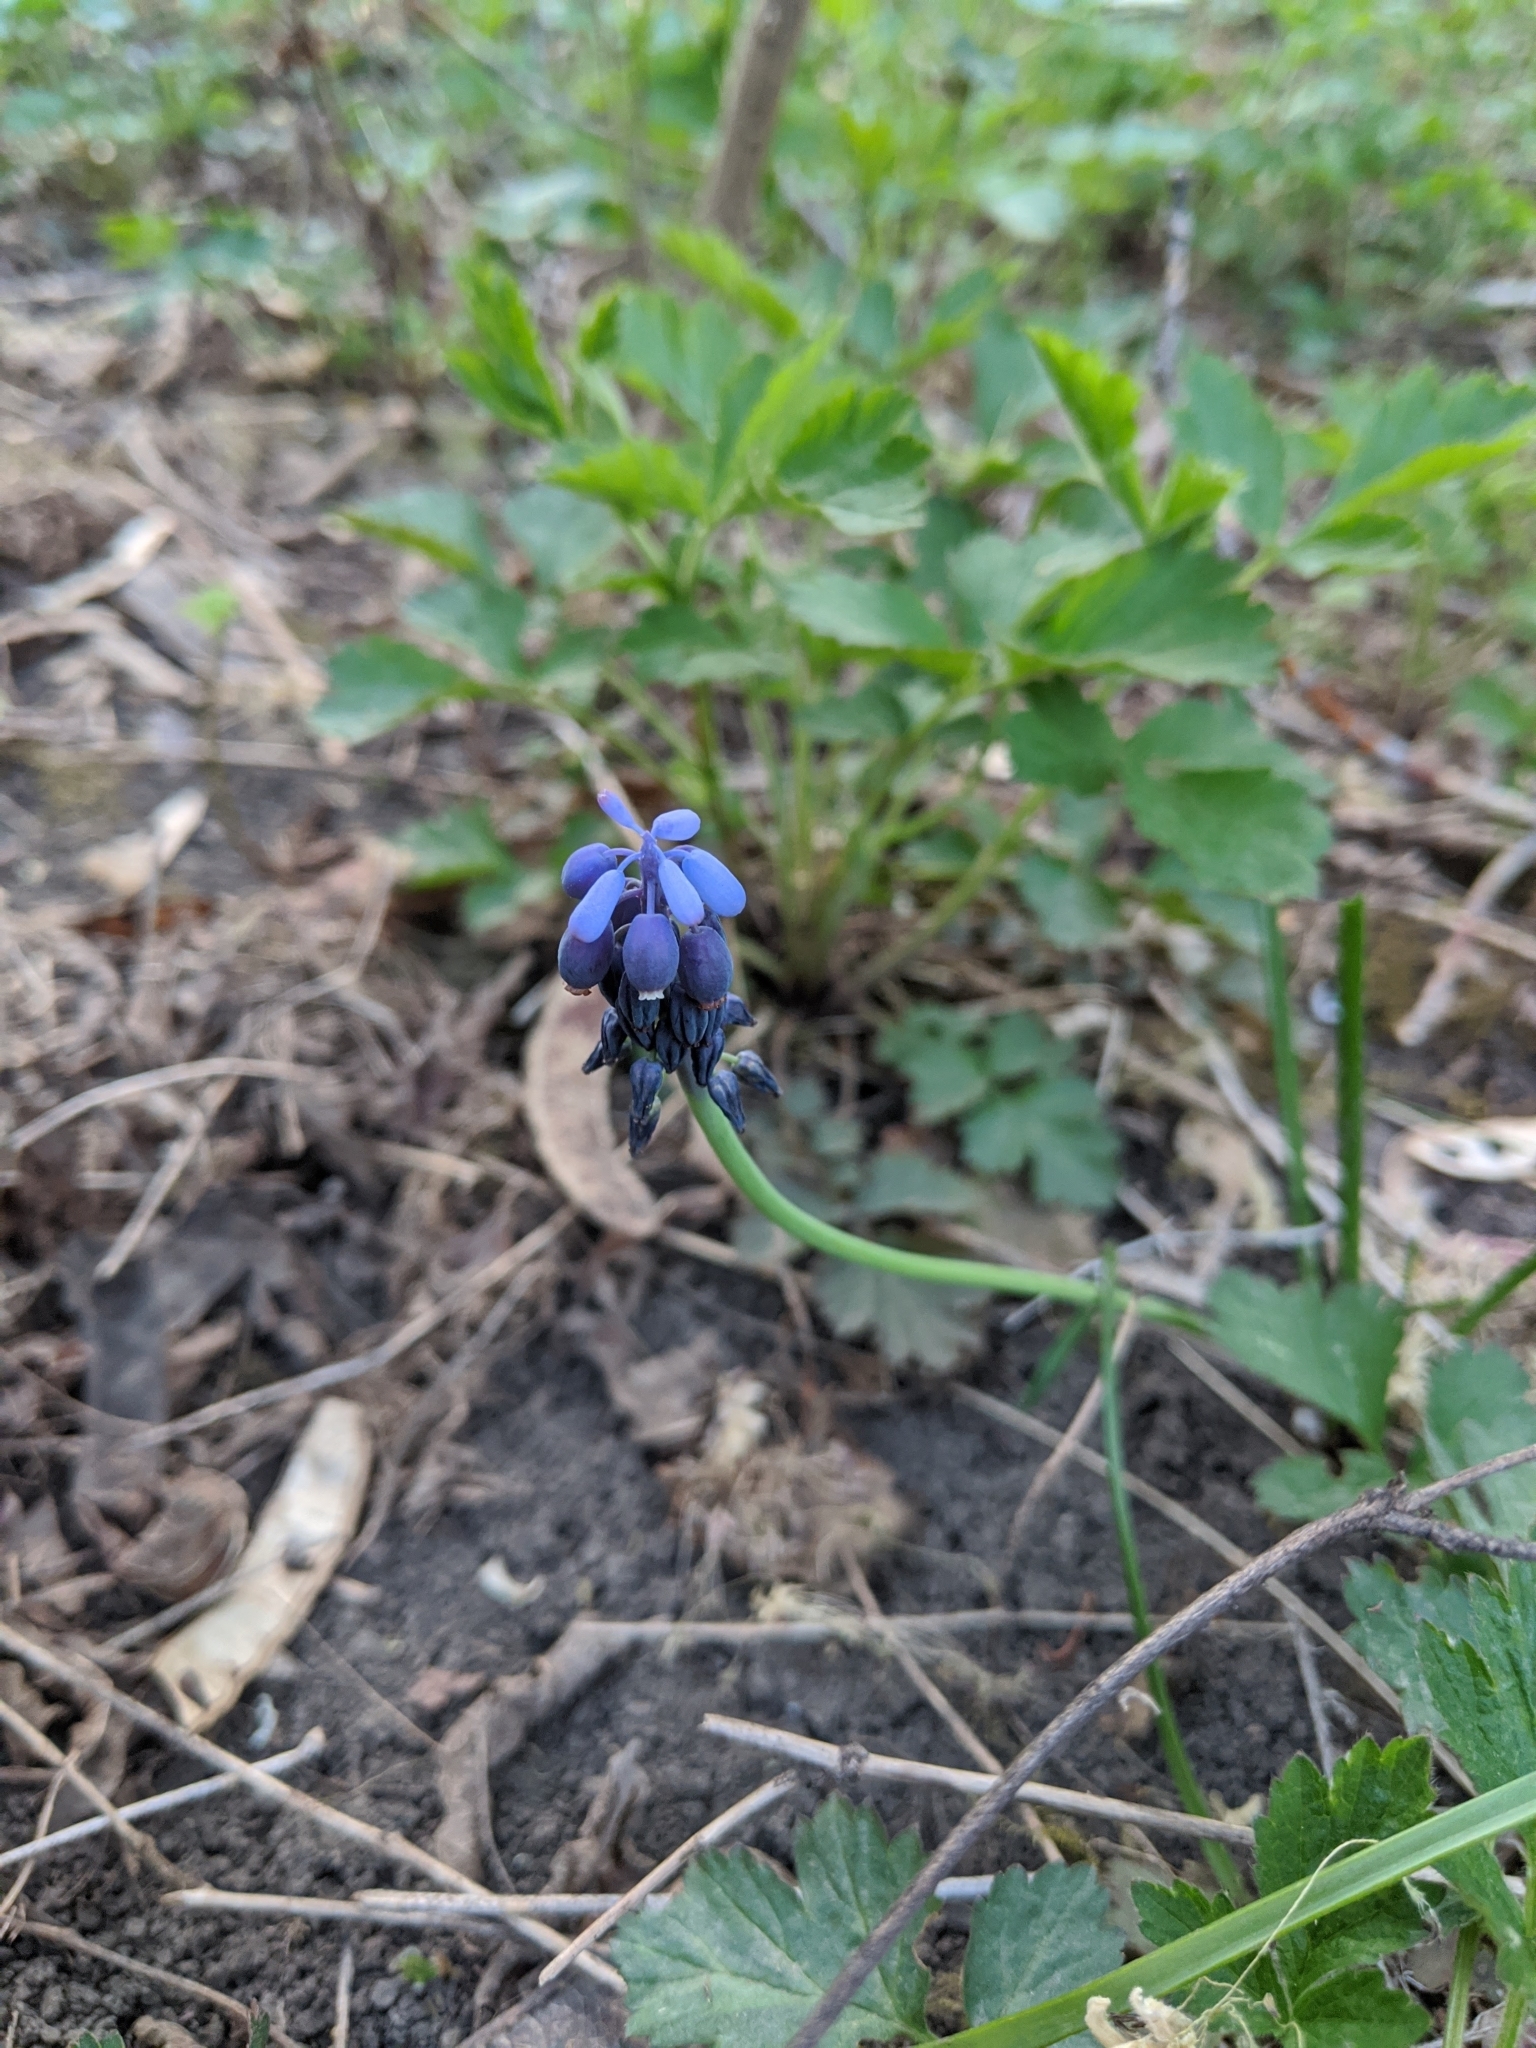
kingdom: Plantae
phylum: Tracheophyta
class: Liliopsida
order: Asparagales
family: Asparagaceae
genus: Muscari
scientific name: Muscari neglectum
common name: Grape-hyacinth
